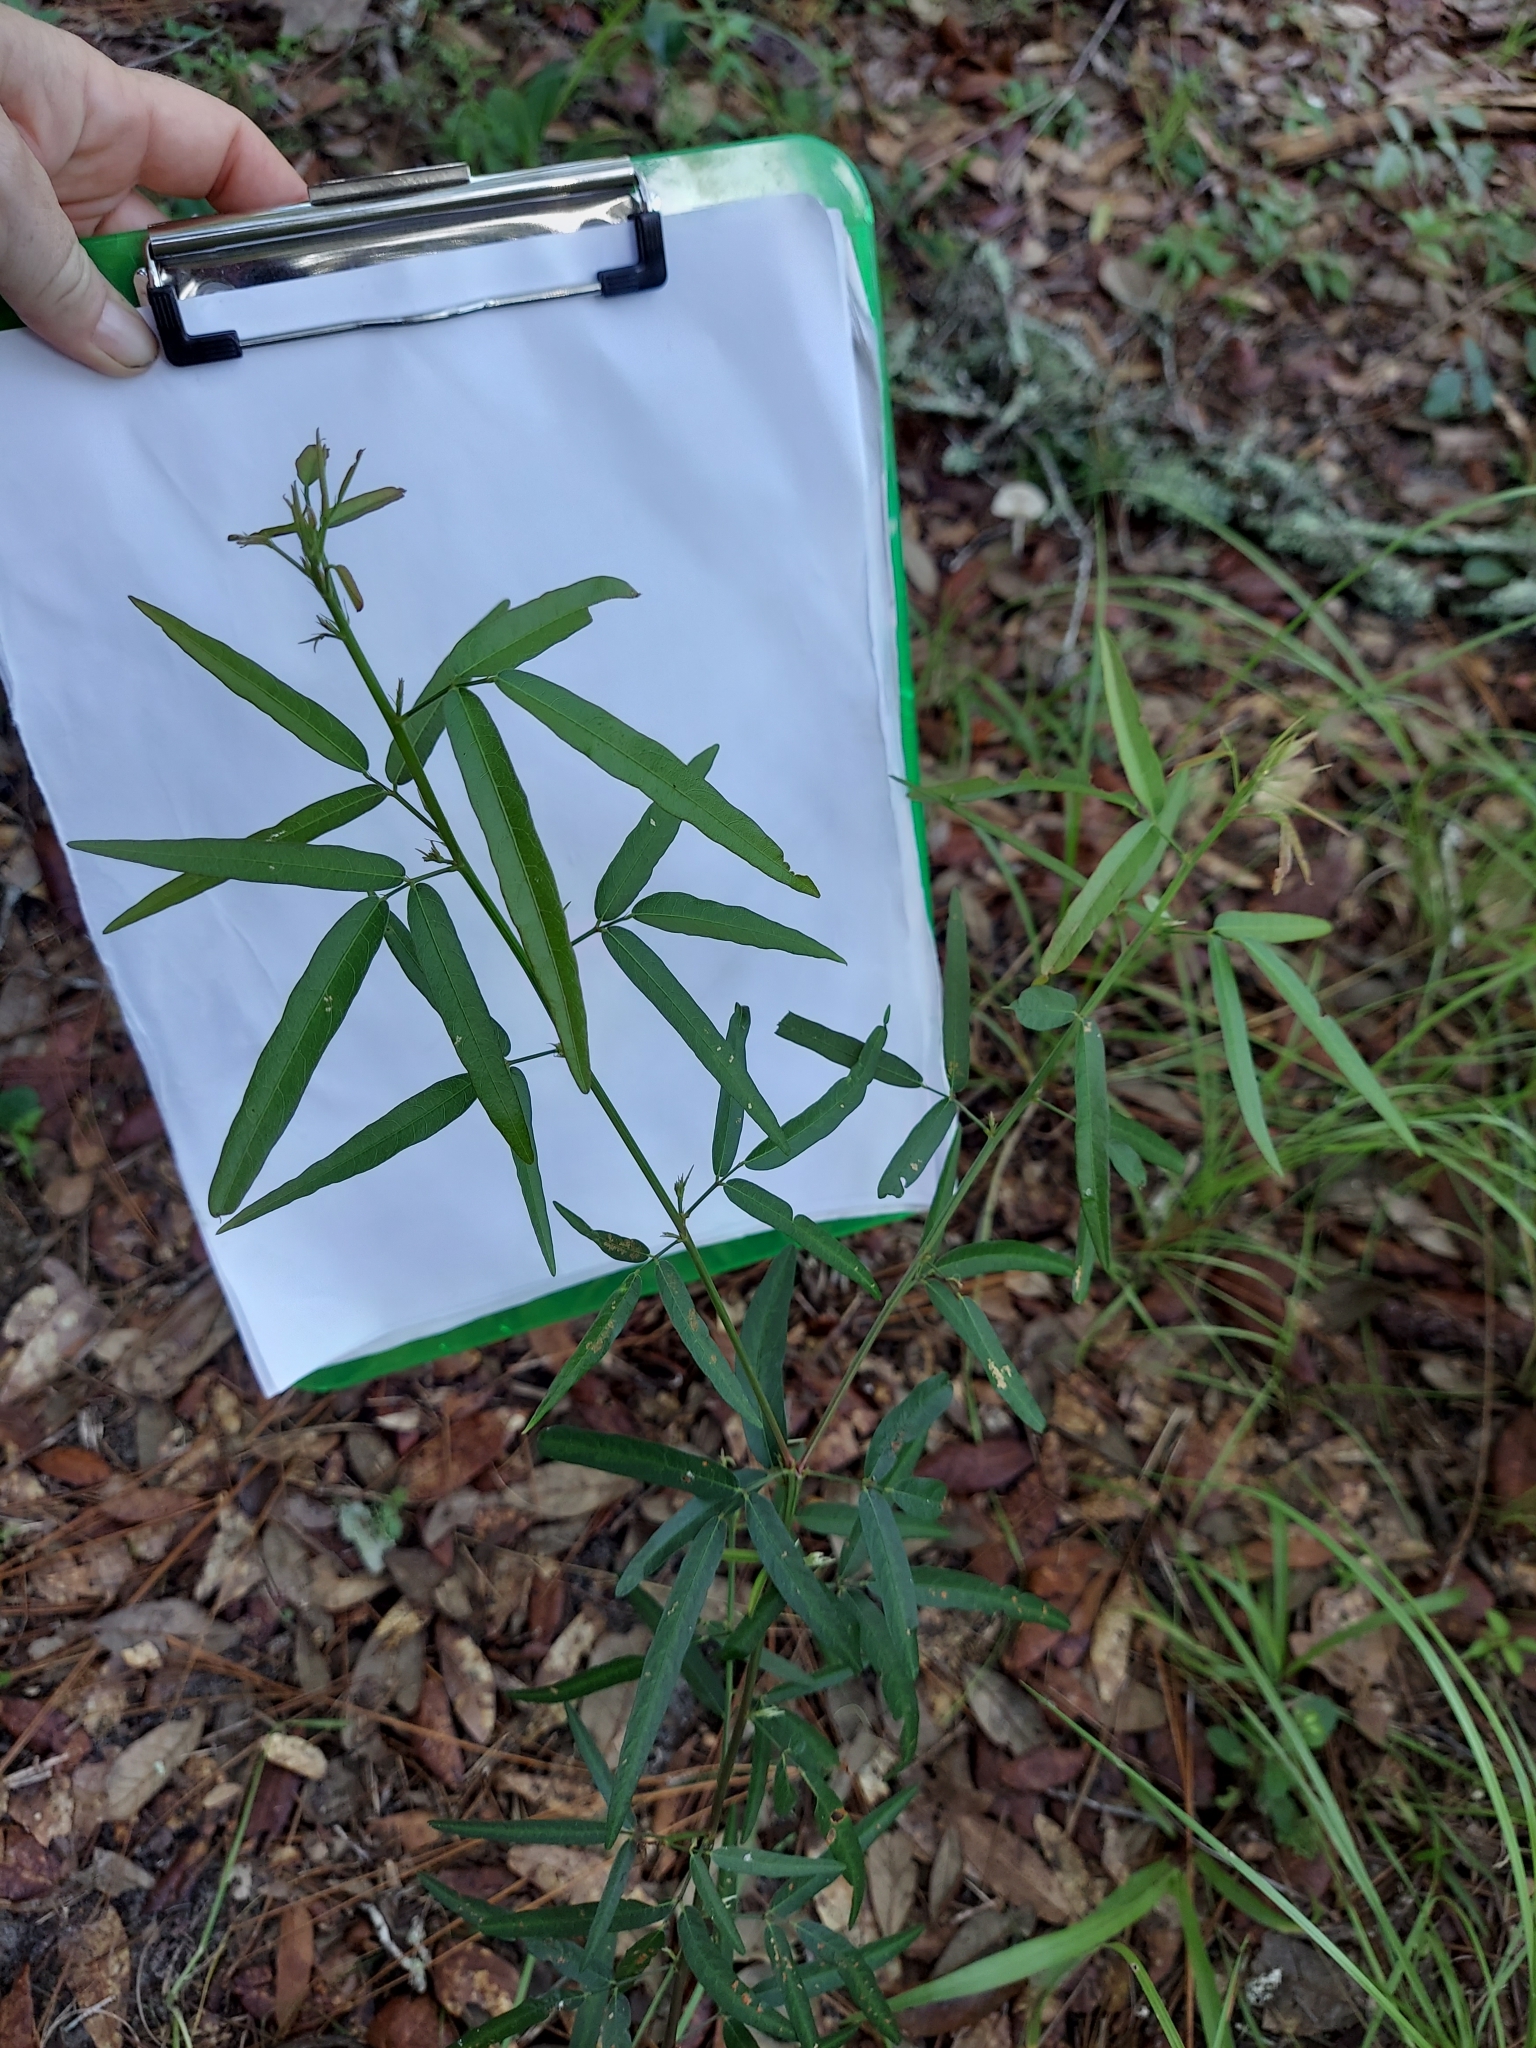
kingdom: Plantae
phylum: Tracheophyta
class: Magnoliopsida
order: Fabales
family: Fabaceae
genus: Macroptilium
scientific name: Macroptilium lathyroides
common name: Wild bushbean
